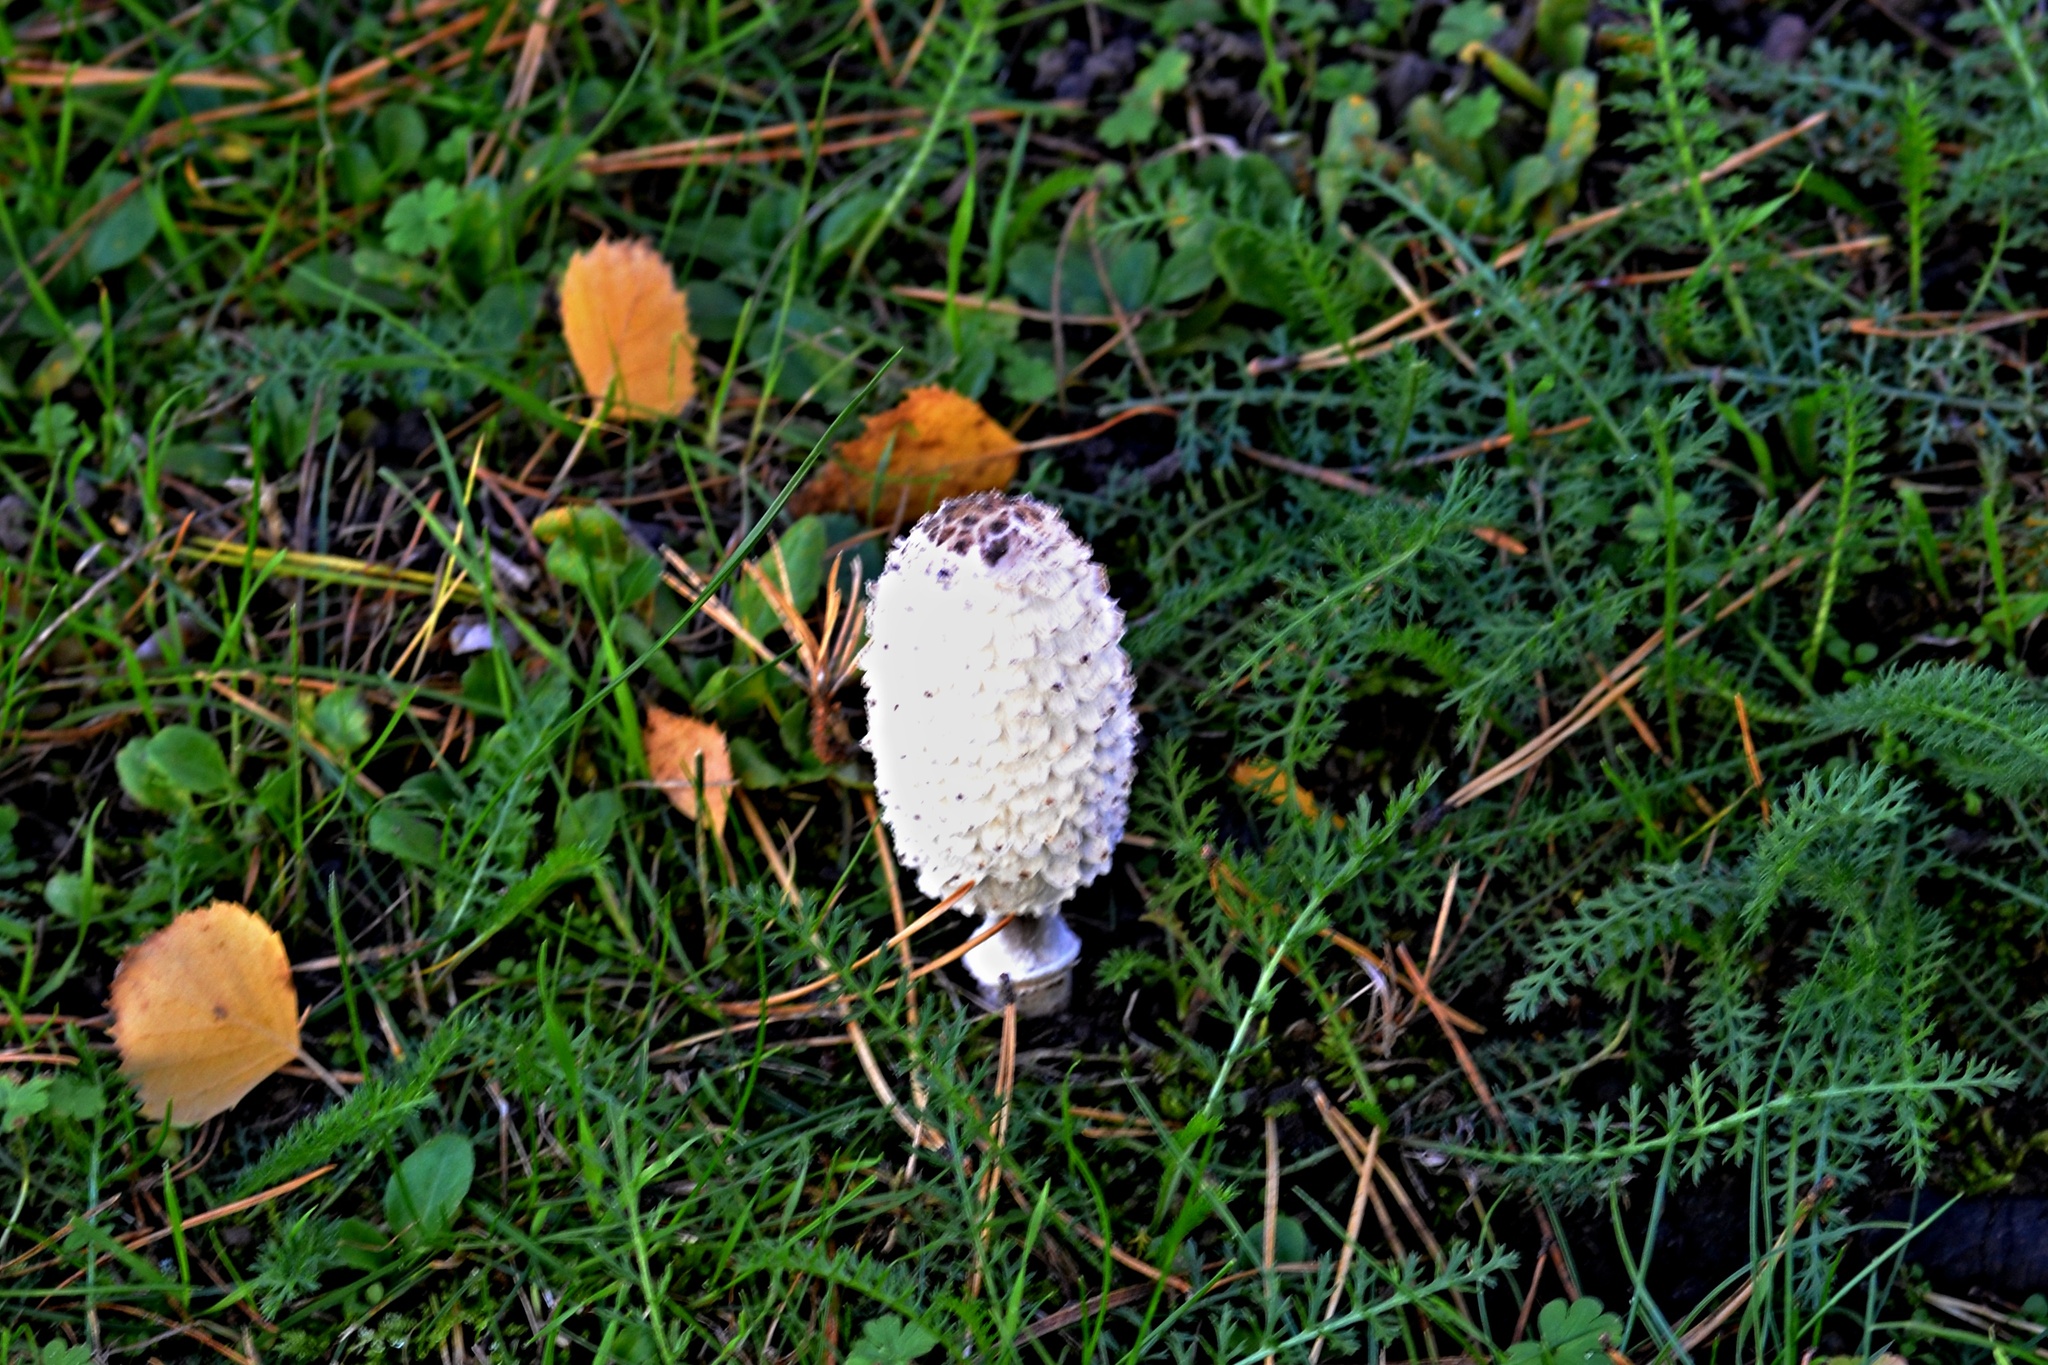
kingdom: Fungi
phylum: Basidiomycota
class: Agaricomycetes
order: Agaricales
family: Agaricaceae
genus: Coprinus
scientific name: Coprinus comatus
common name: Lawyer's wig
